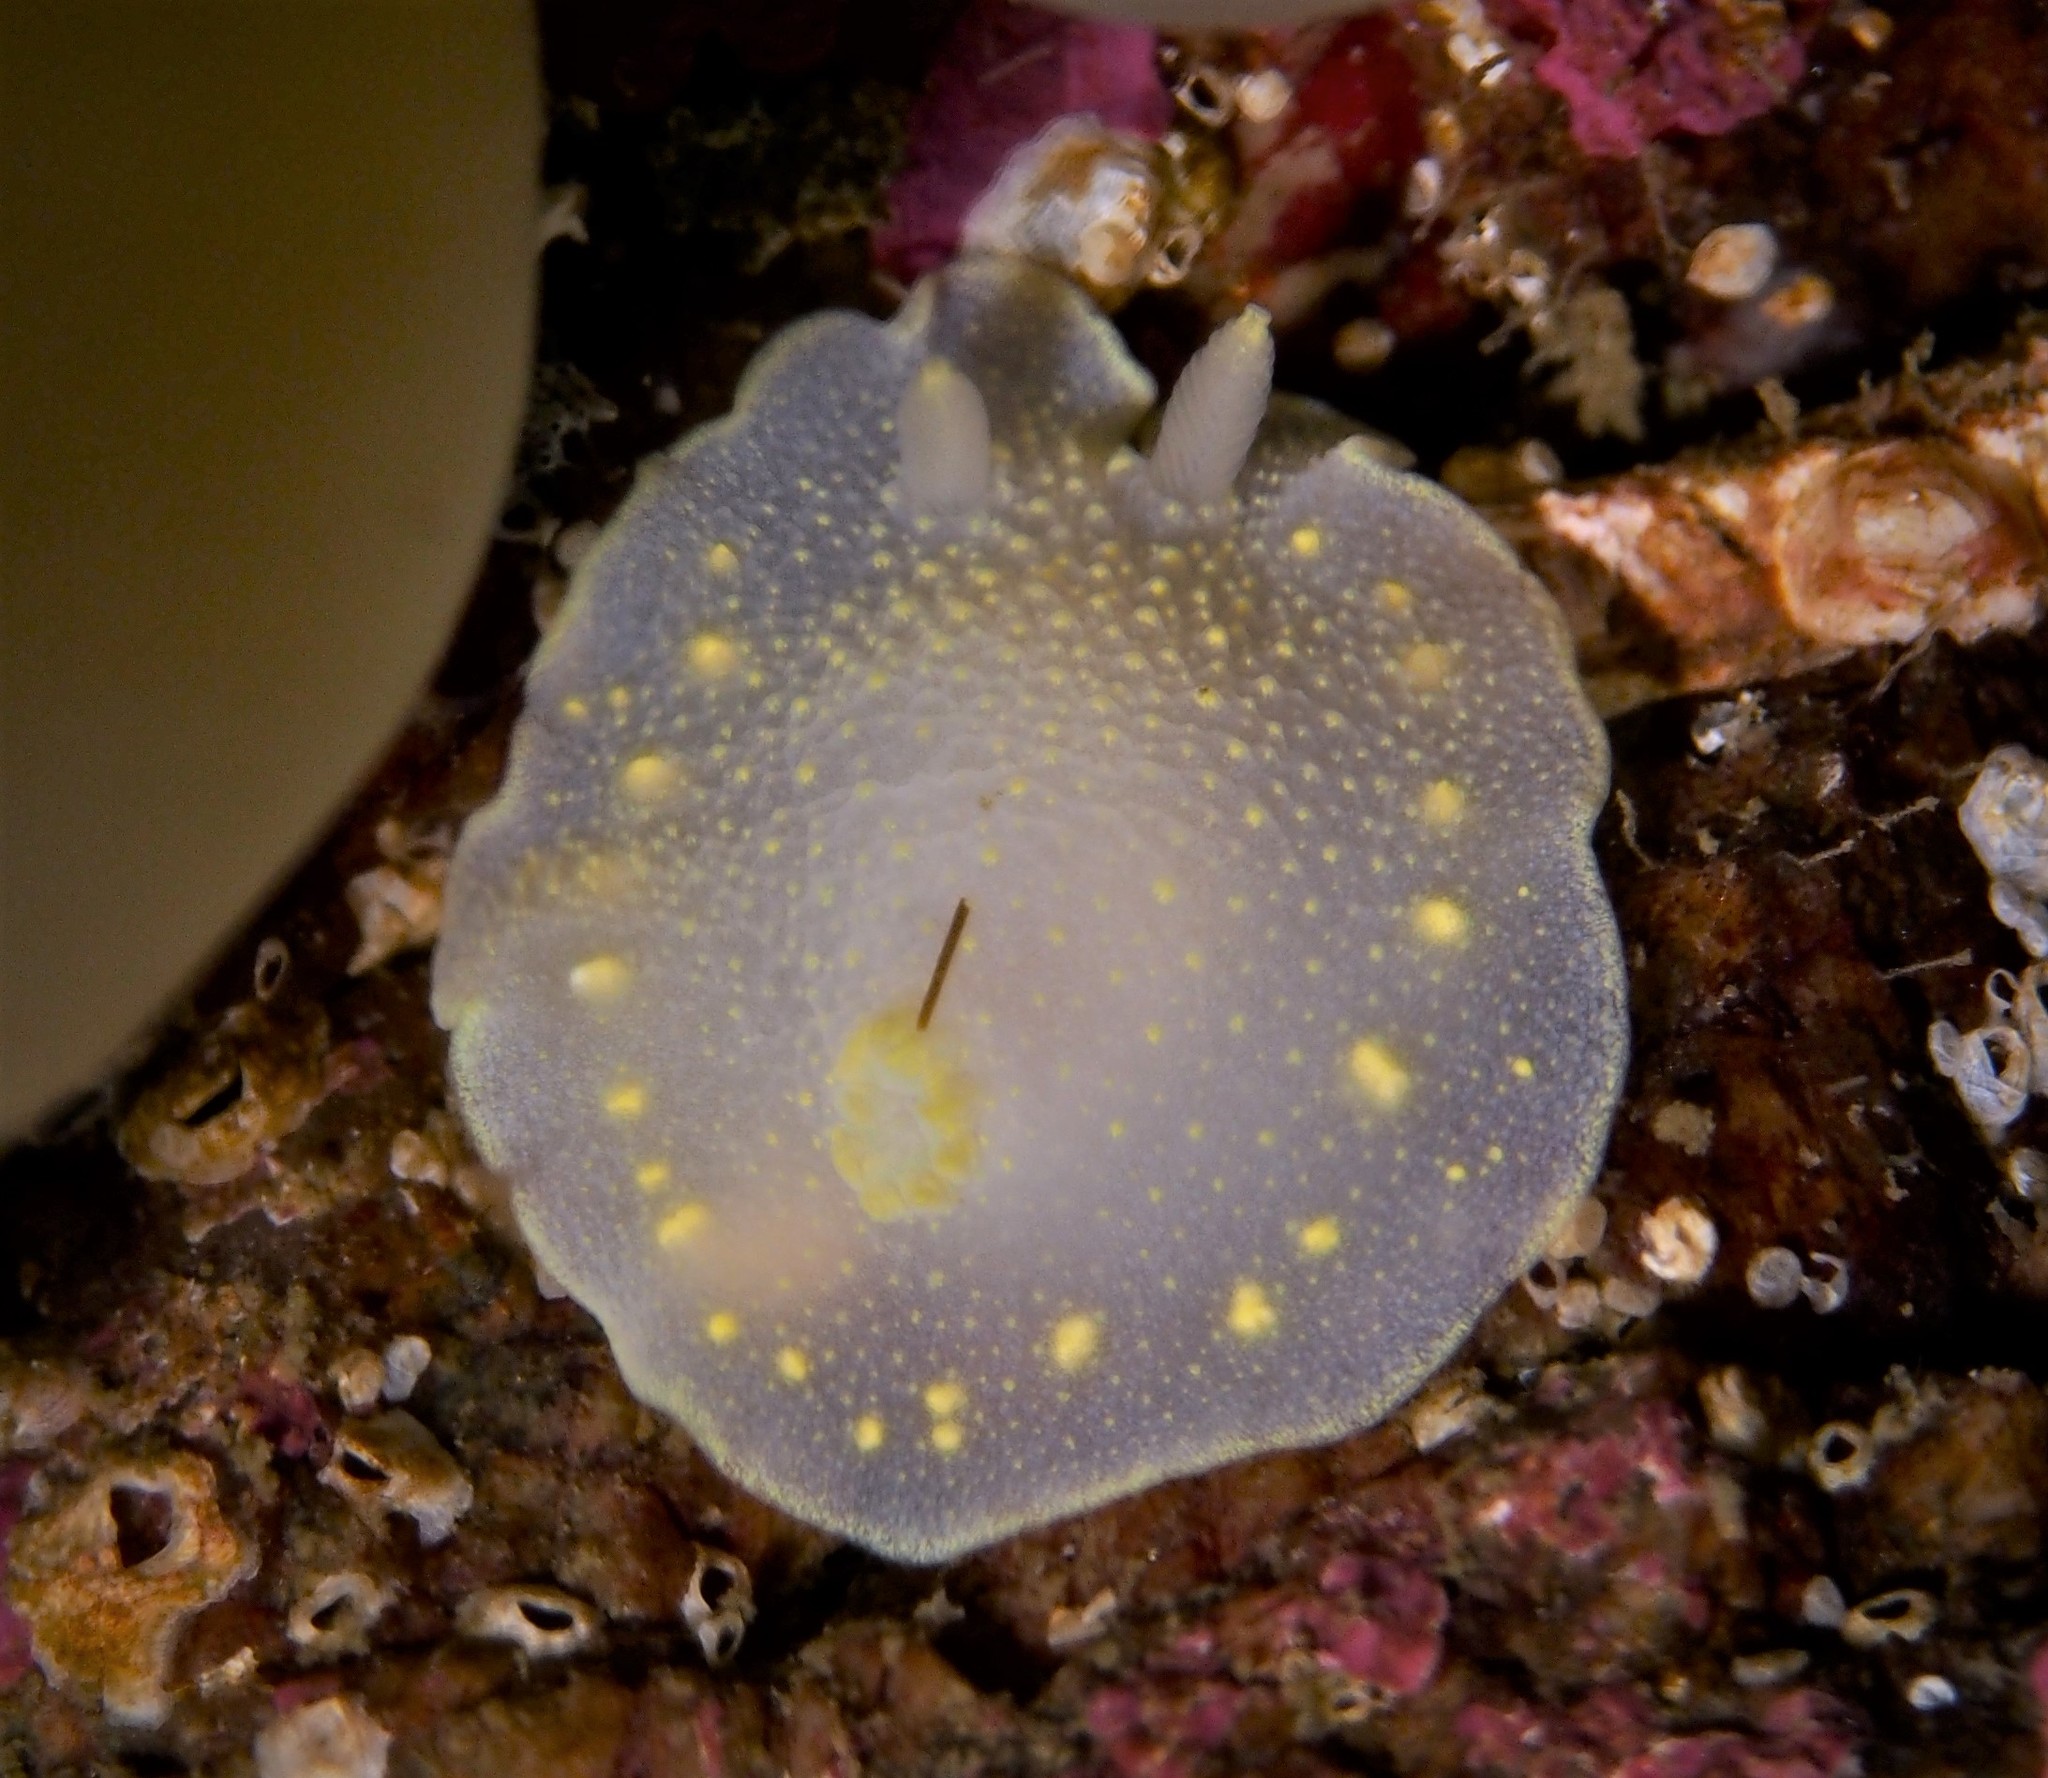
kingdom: Animalia
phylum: Mollusca
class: Gastropoda
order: Nudibranchia
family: Cadlinidae
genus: Cadlina
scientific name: Cadlina laevis
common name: White atlantic cadlina
